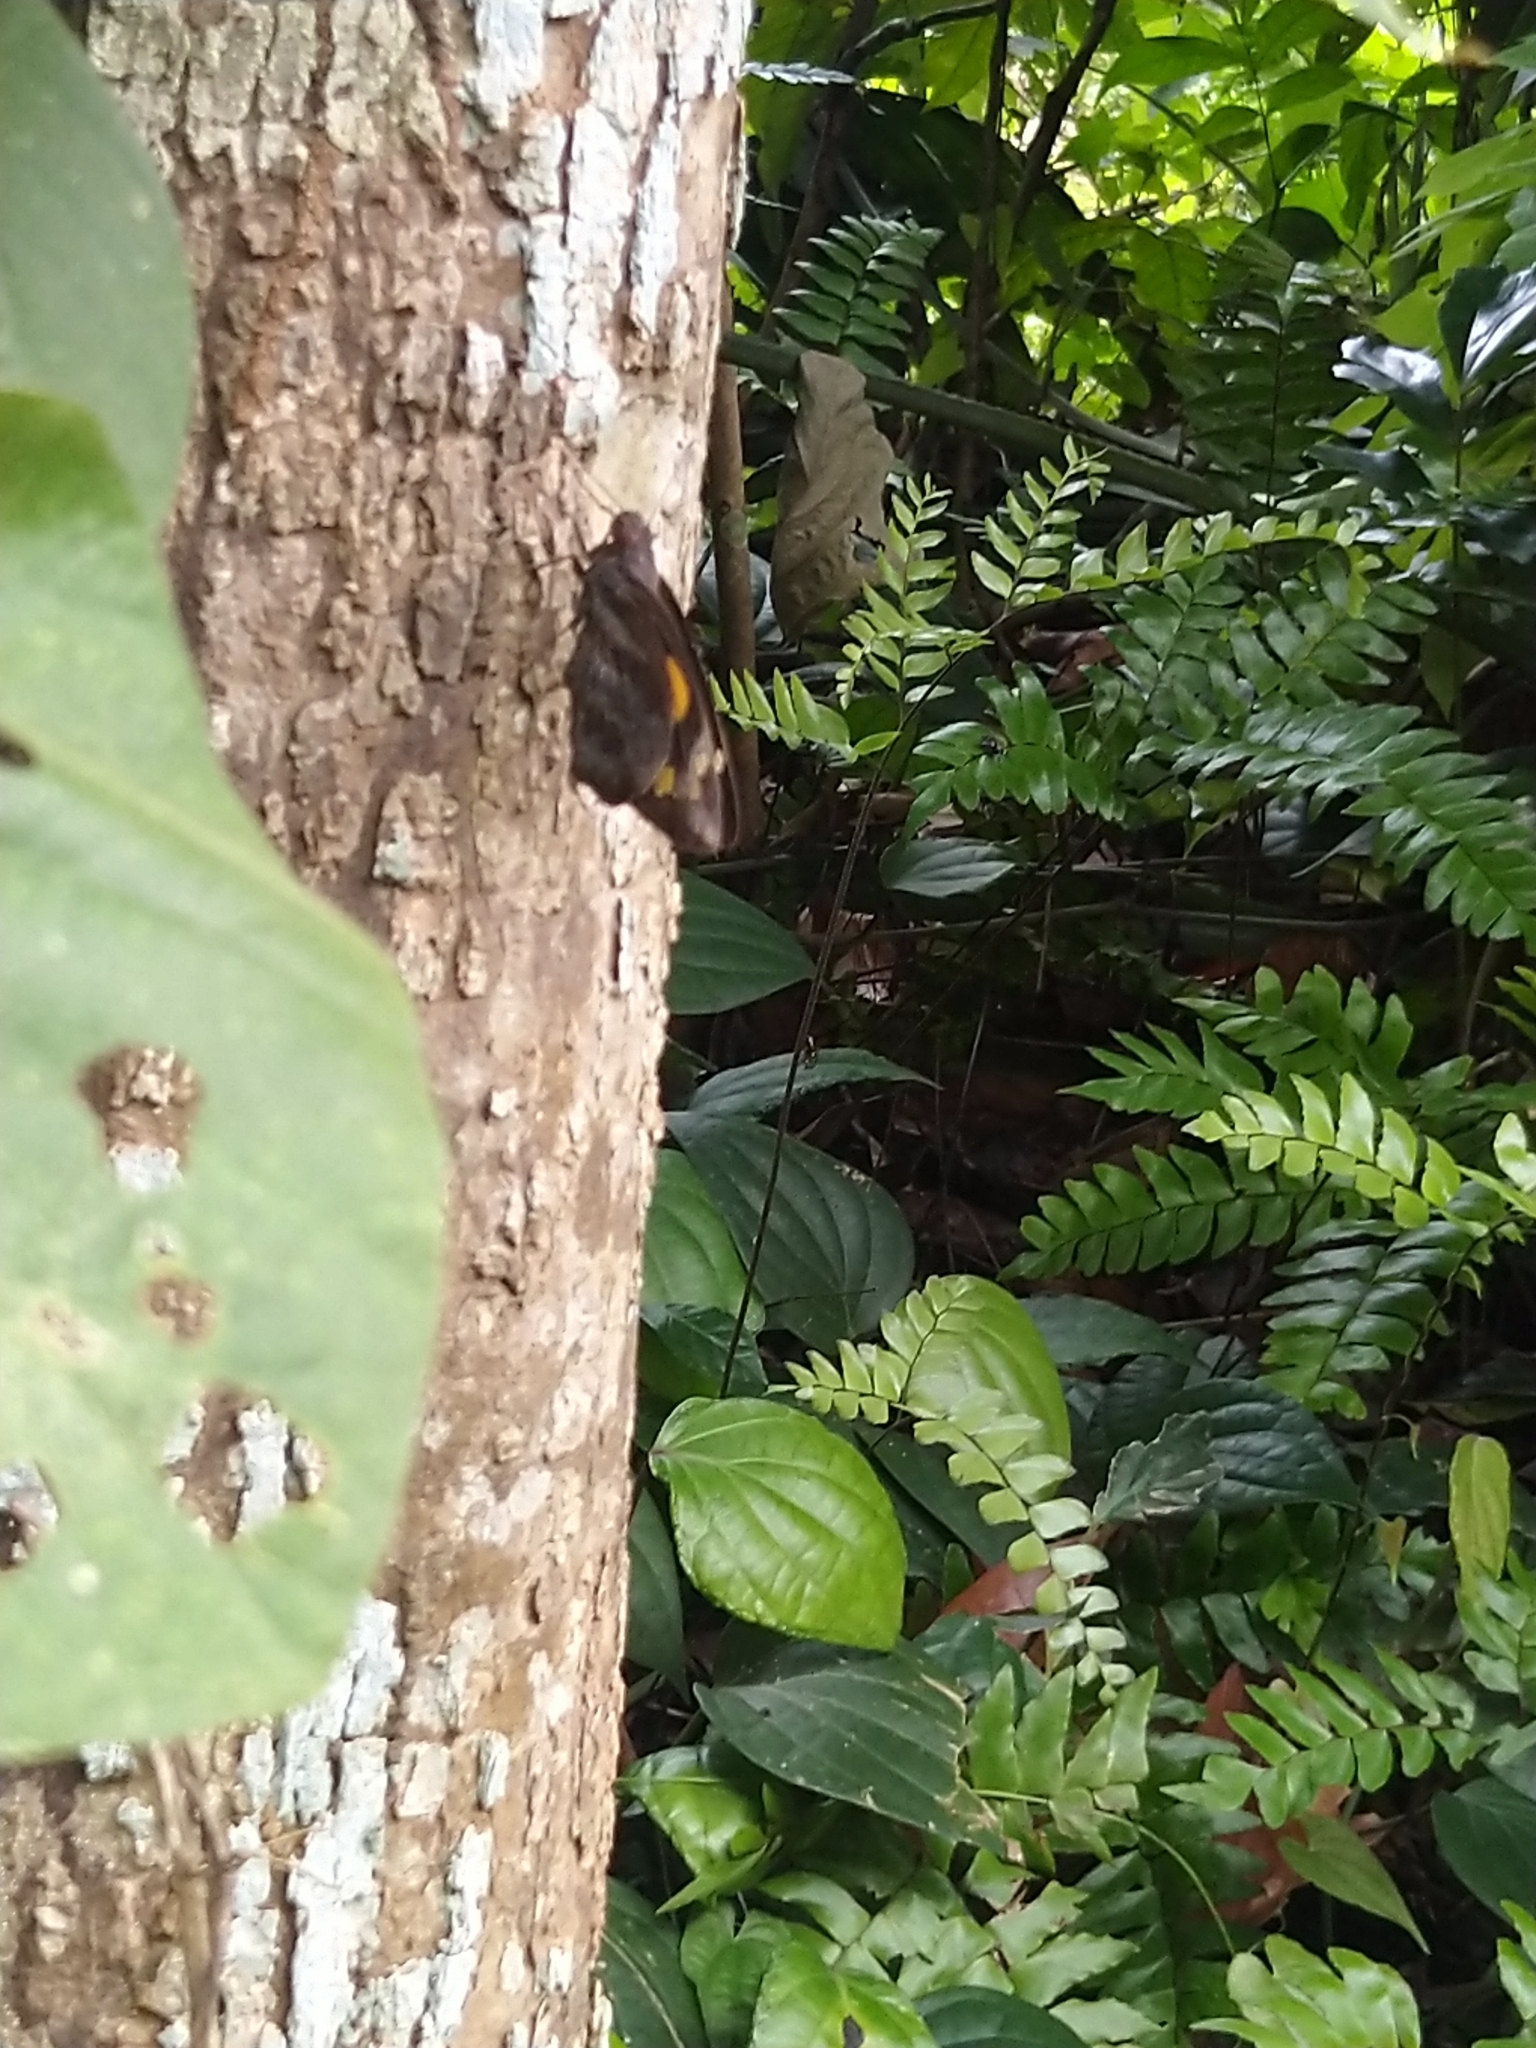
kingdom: Animalia
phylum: Arthropoda
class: Insecta
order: Lepidoptera
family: Hesperiidae
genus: Gangara
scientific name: Gangara thyrsis
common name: Giant redeye
